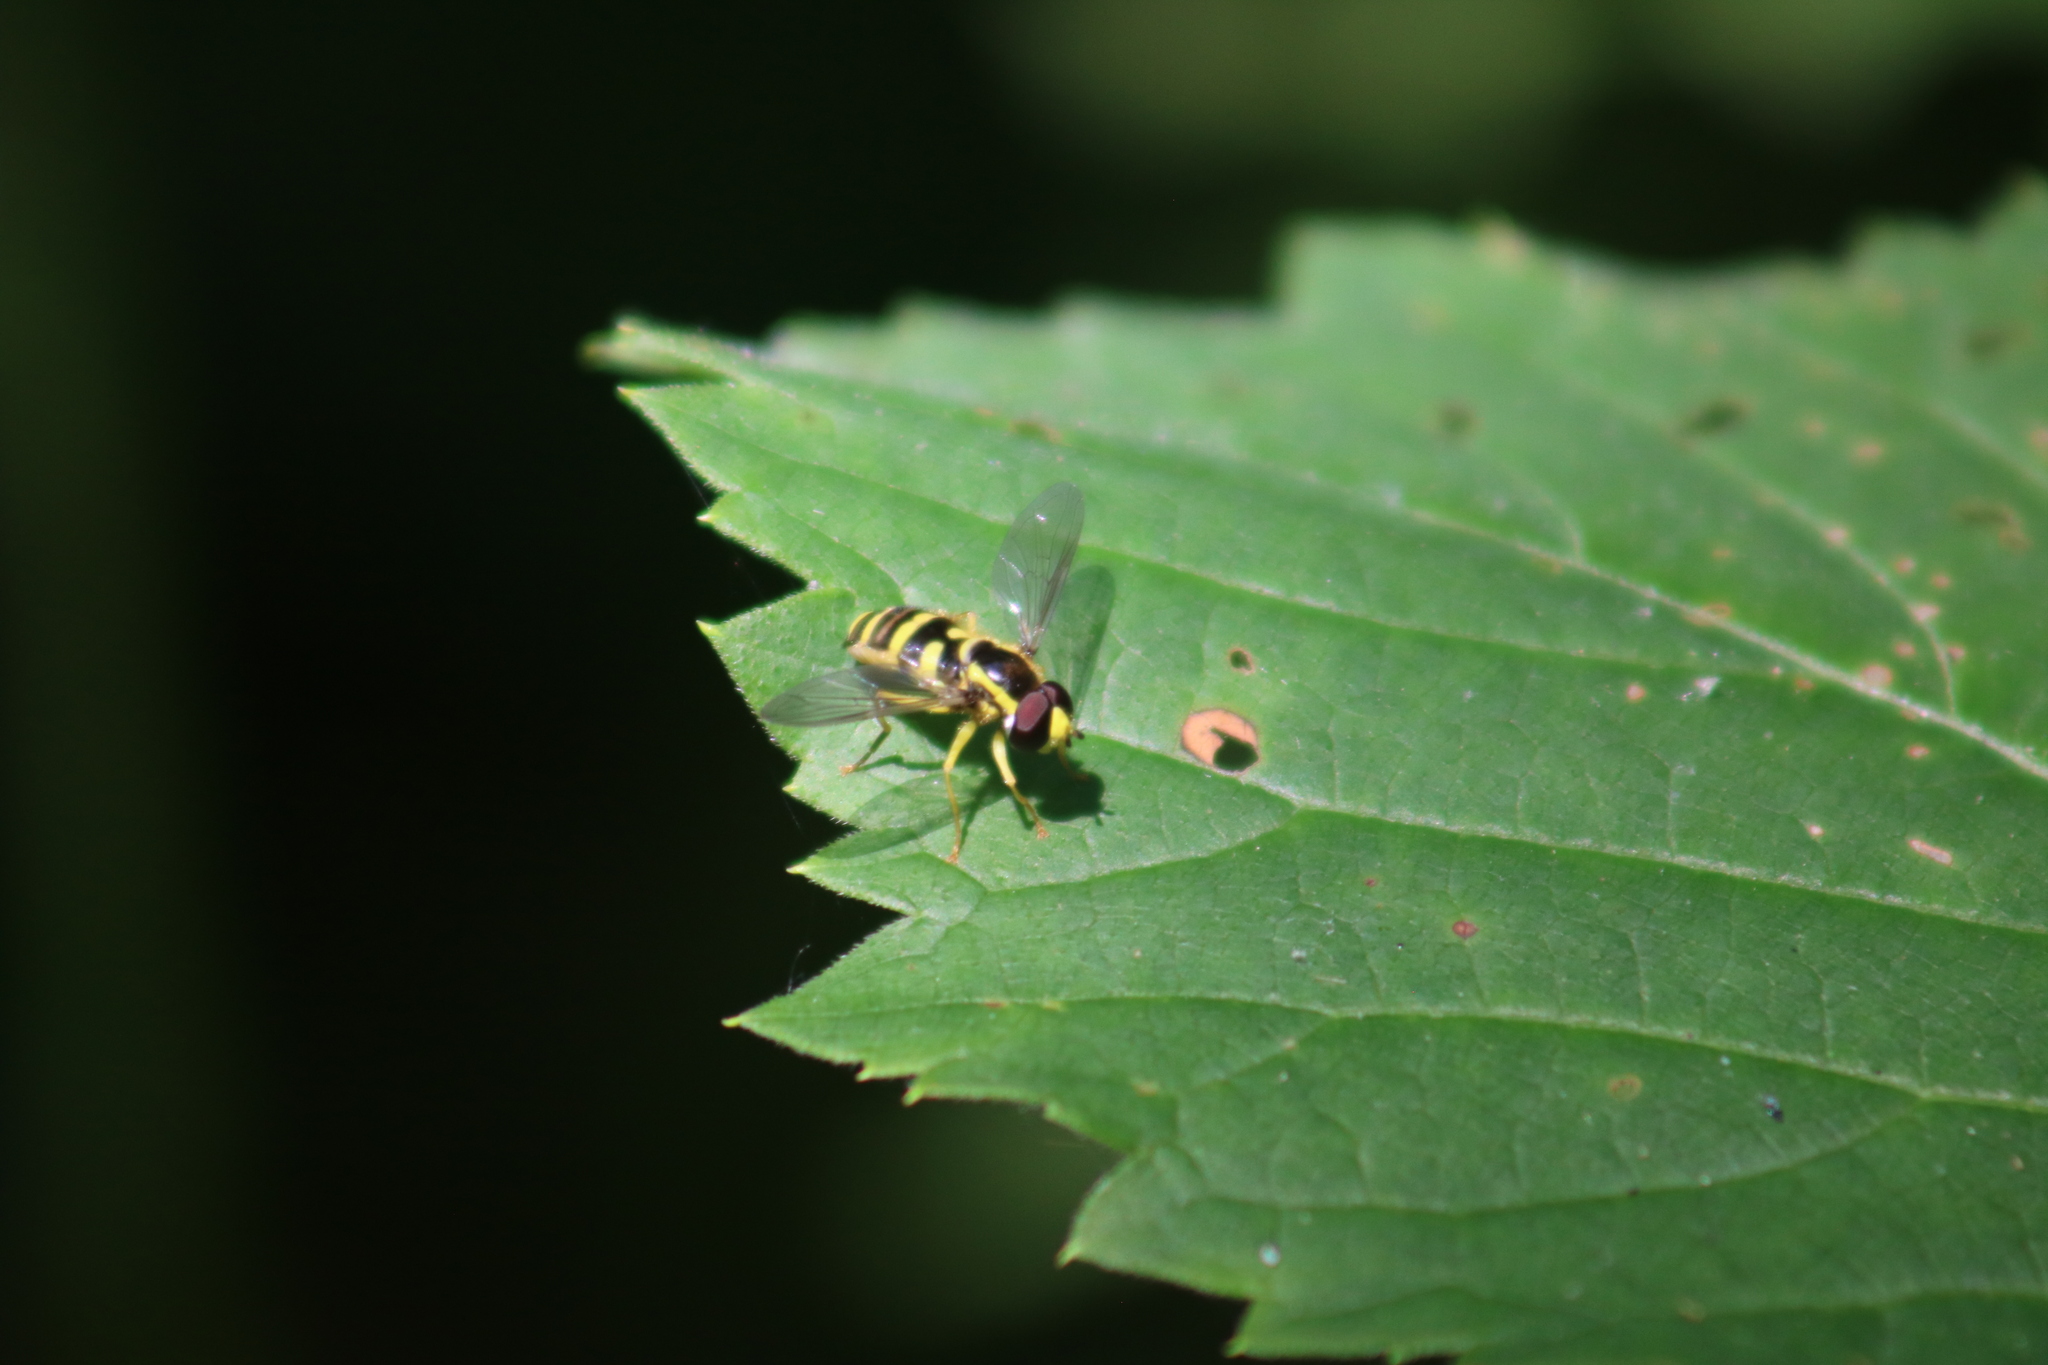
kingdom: Animalia
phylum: Arthropoda
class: Insecta
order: Diptera
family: Syrphidae
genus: Philhelius
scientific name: Philhelius flavipes
